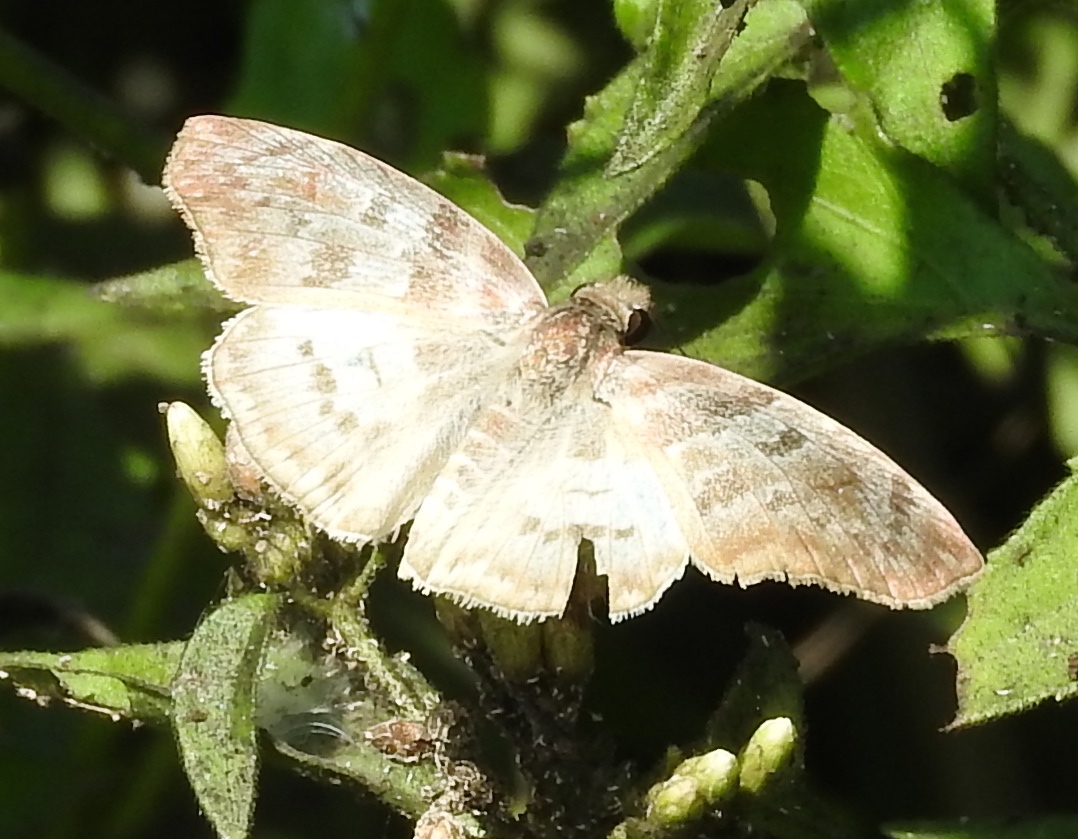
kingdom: Animalia
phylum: Arthropoda
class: Insecta
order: Lepidoptera
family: Hesperiidae
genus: Mylon
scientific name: Mylon pelopidas
